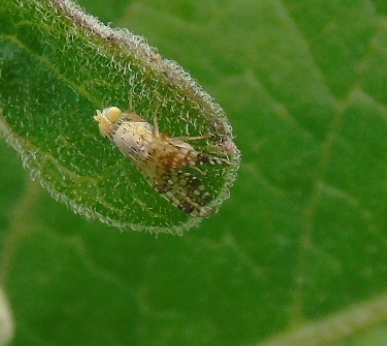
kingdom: Animalia
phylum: Arthropoda
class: Insecta
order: Diptera
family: Tephritidae
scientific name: Tephritidae
